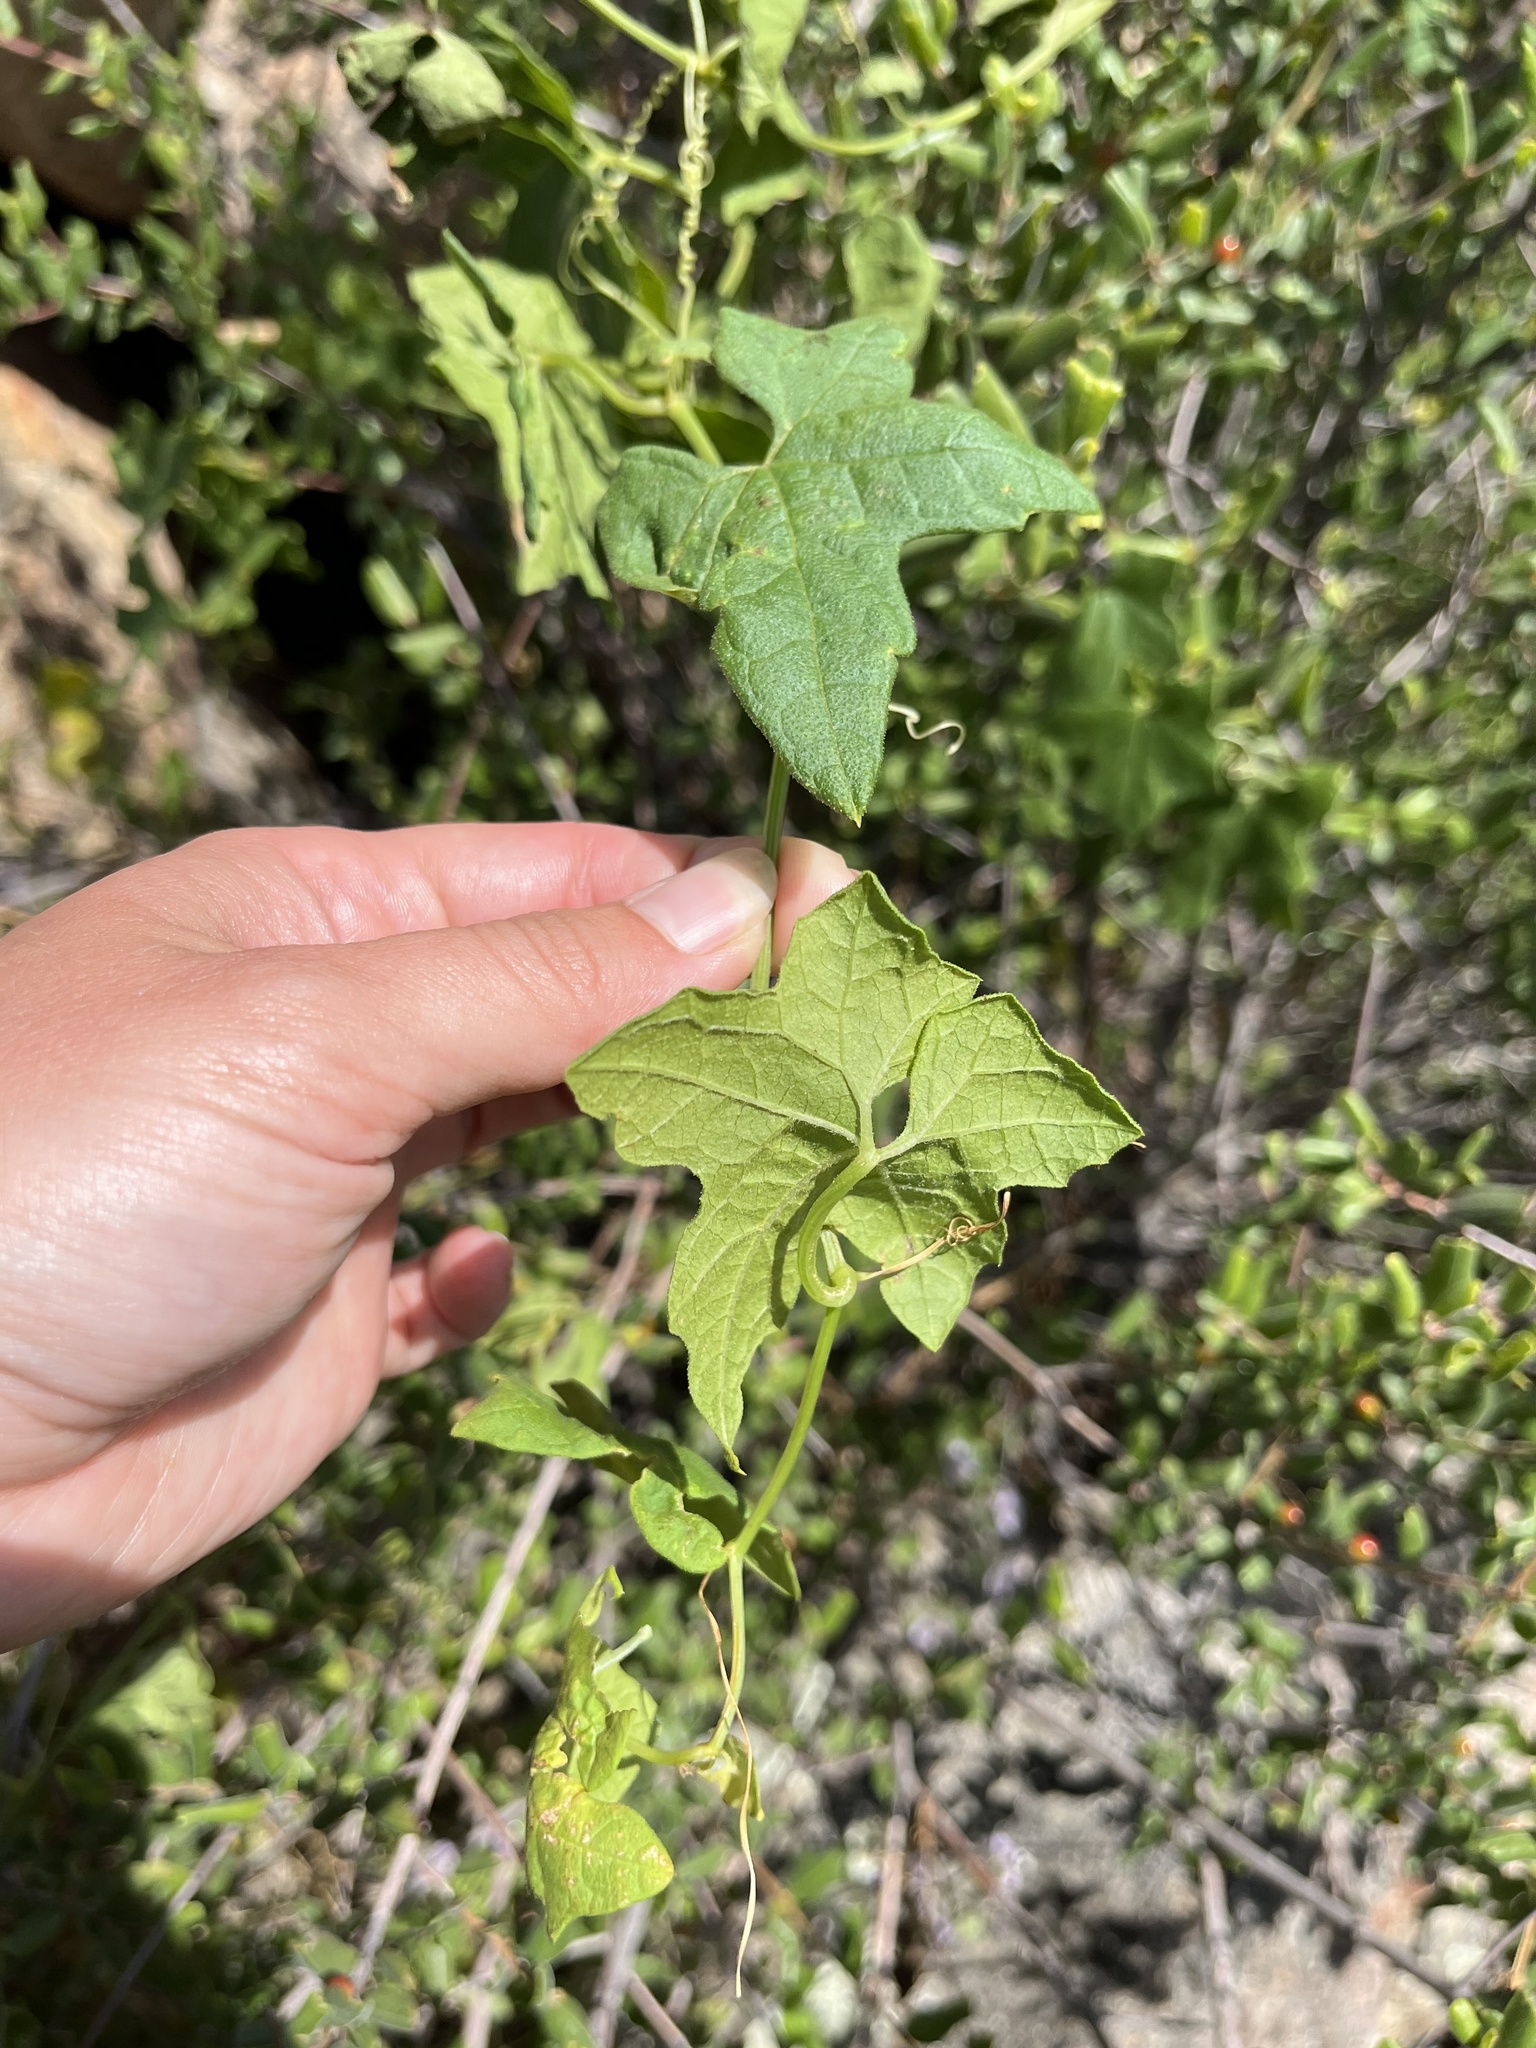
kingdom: Plantae
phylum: Tracheophyta
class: Magnoliopsida
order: Cucurbitales
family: Cucurbitaceae
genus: Marah
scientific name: Marah macrocarpa
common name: Cucamonga manroot
